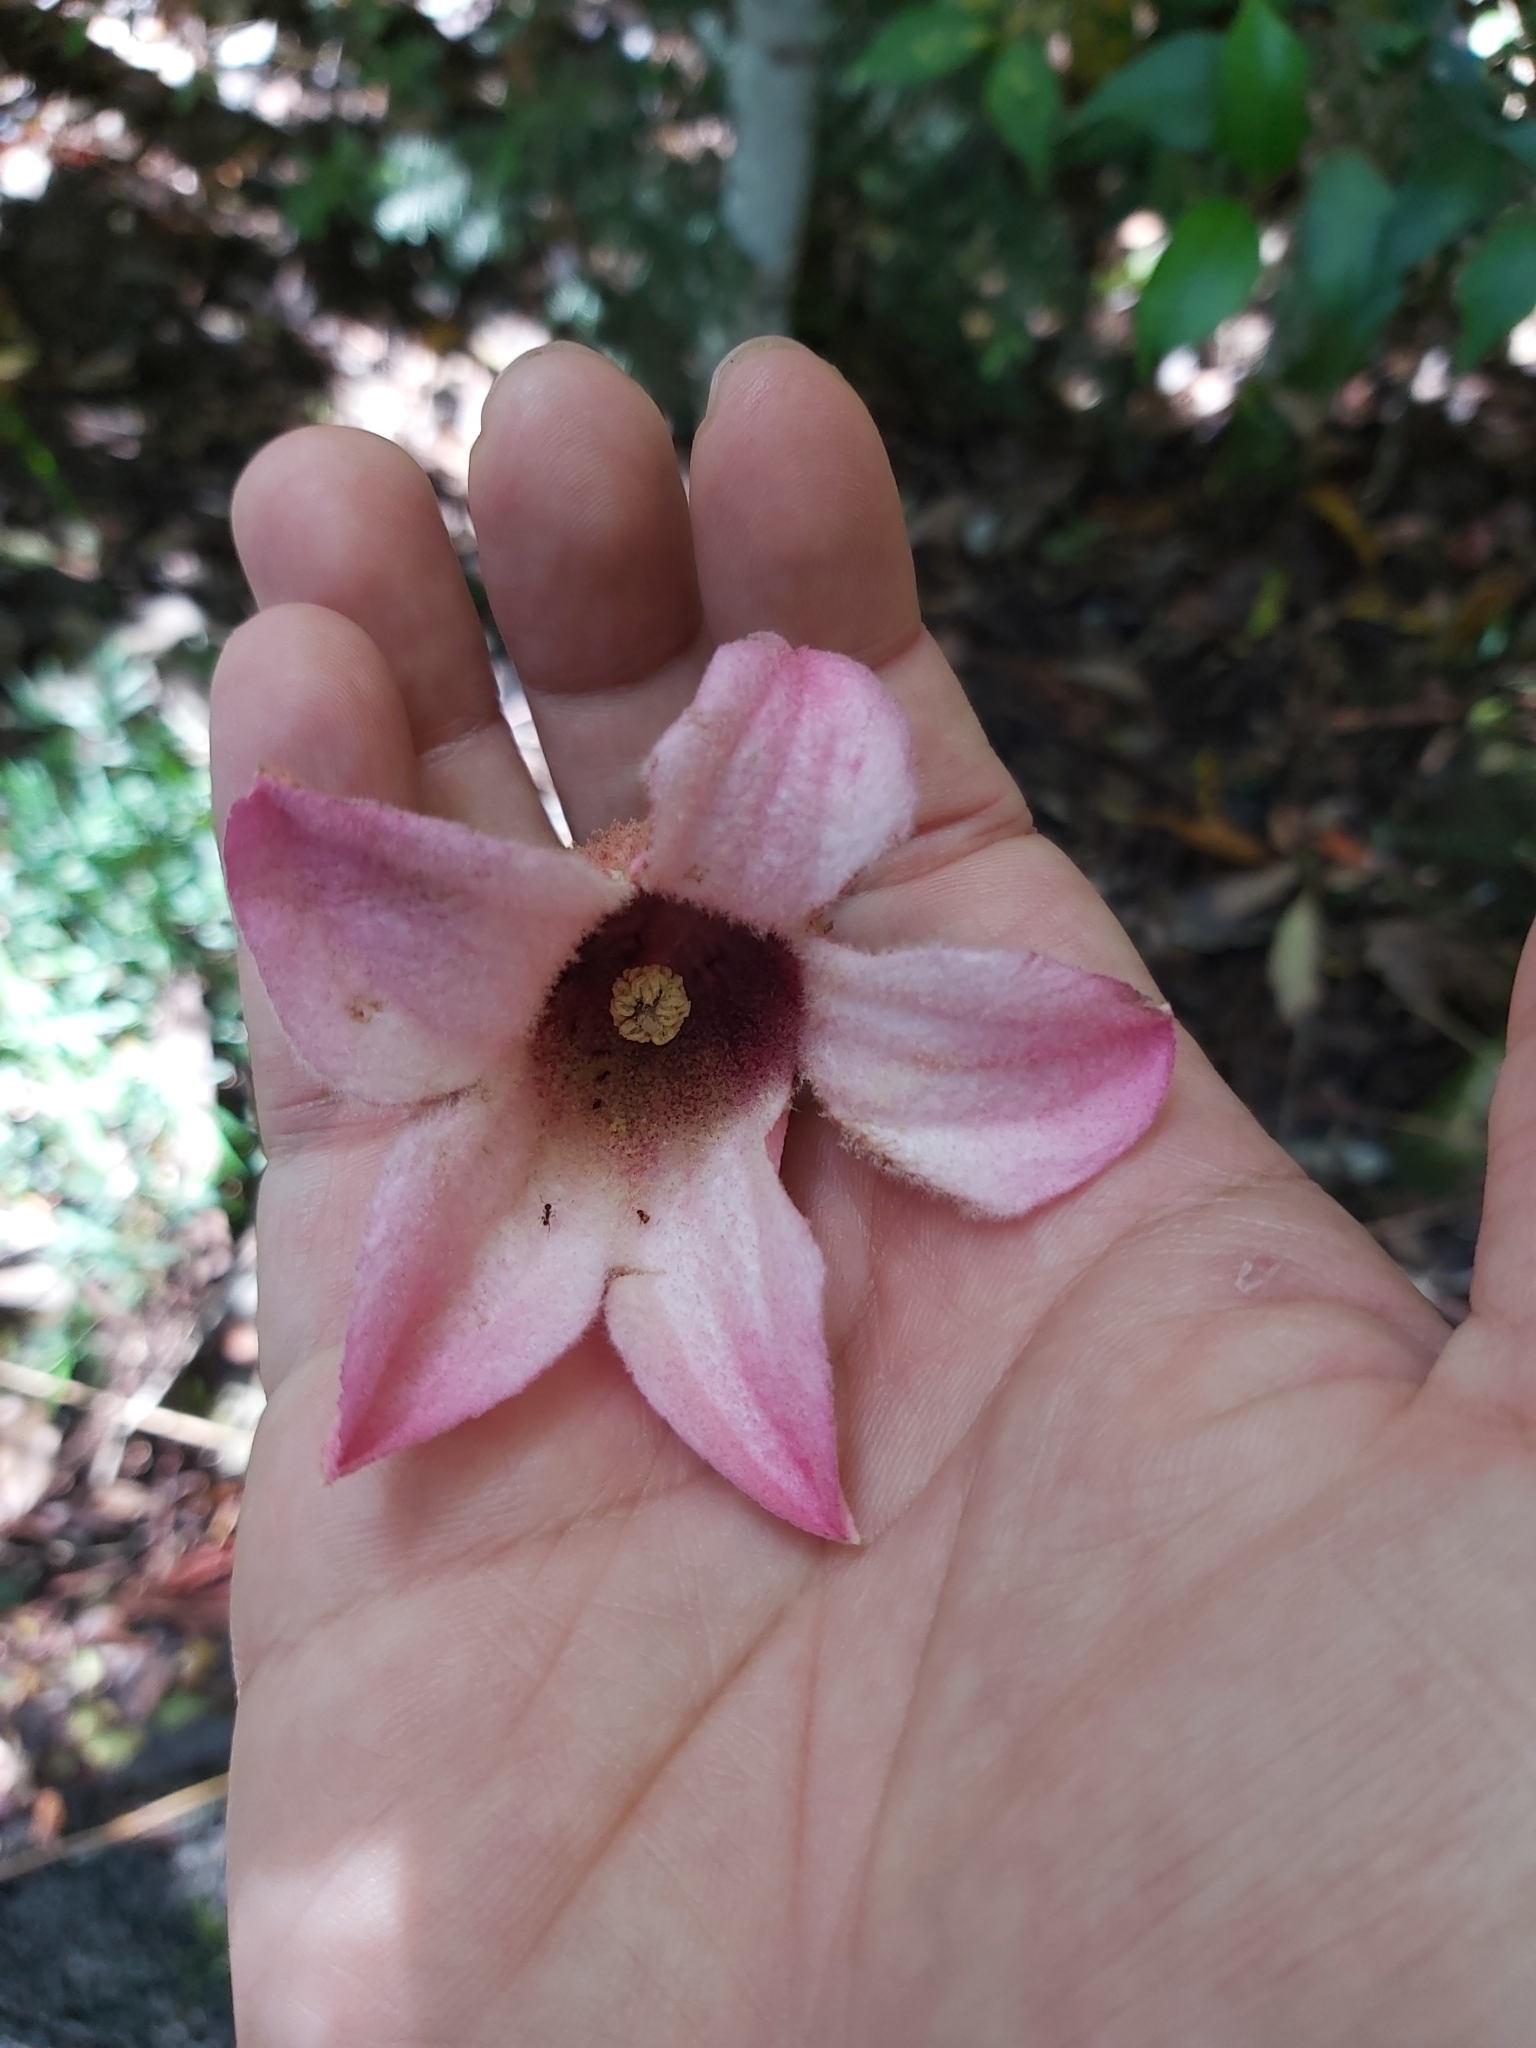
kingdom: Plantae
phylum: Tracheophyta
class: Magnoliopsida
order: Malvales
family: Malvaceae
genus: Brachychiton
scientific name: Brachychiton discolor
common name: Queensland lacebark
